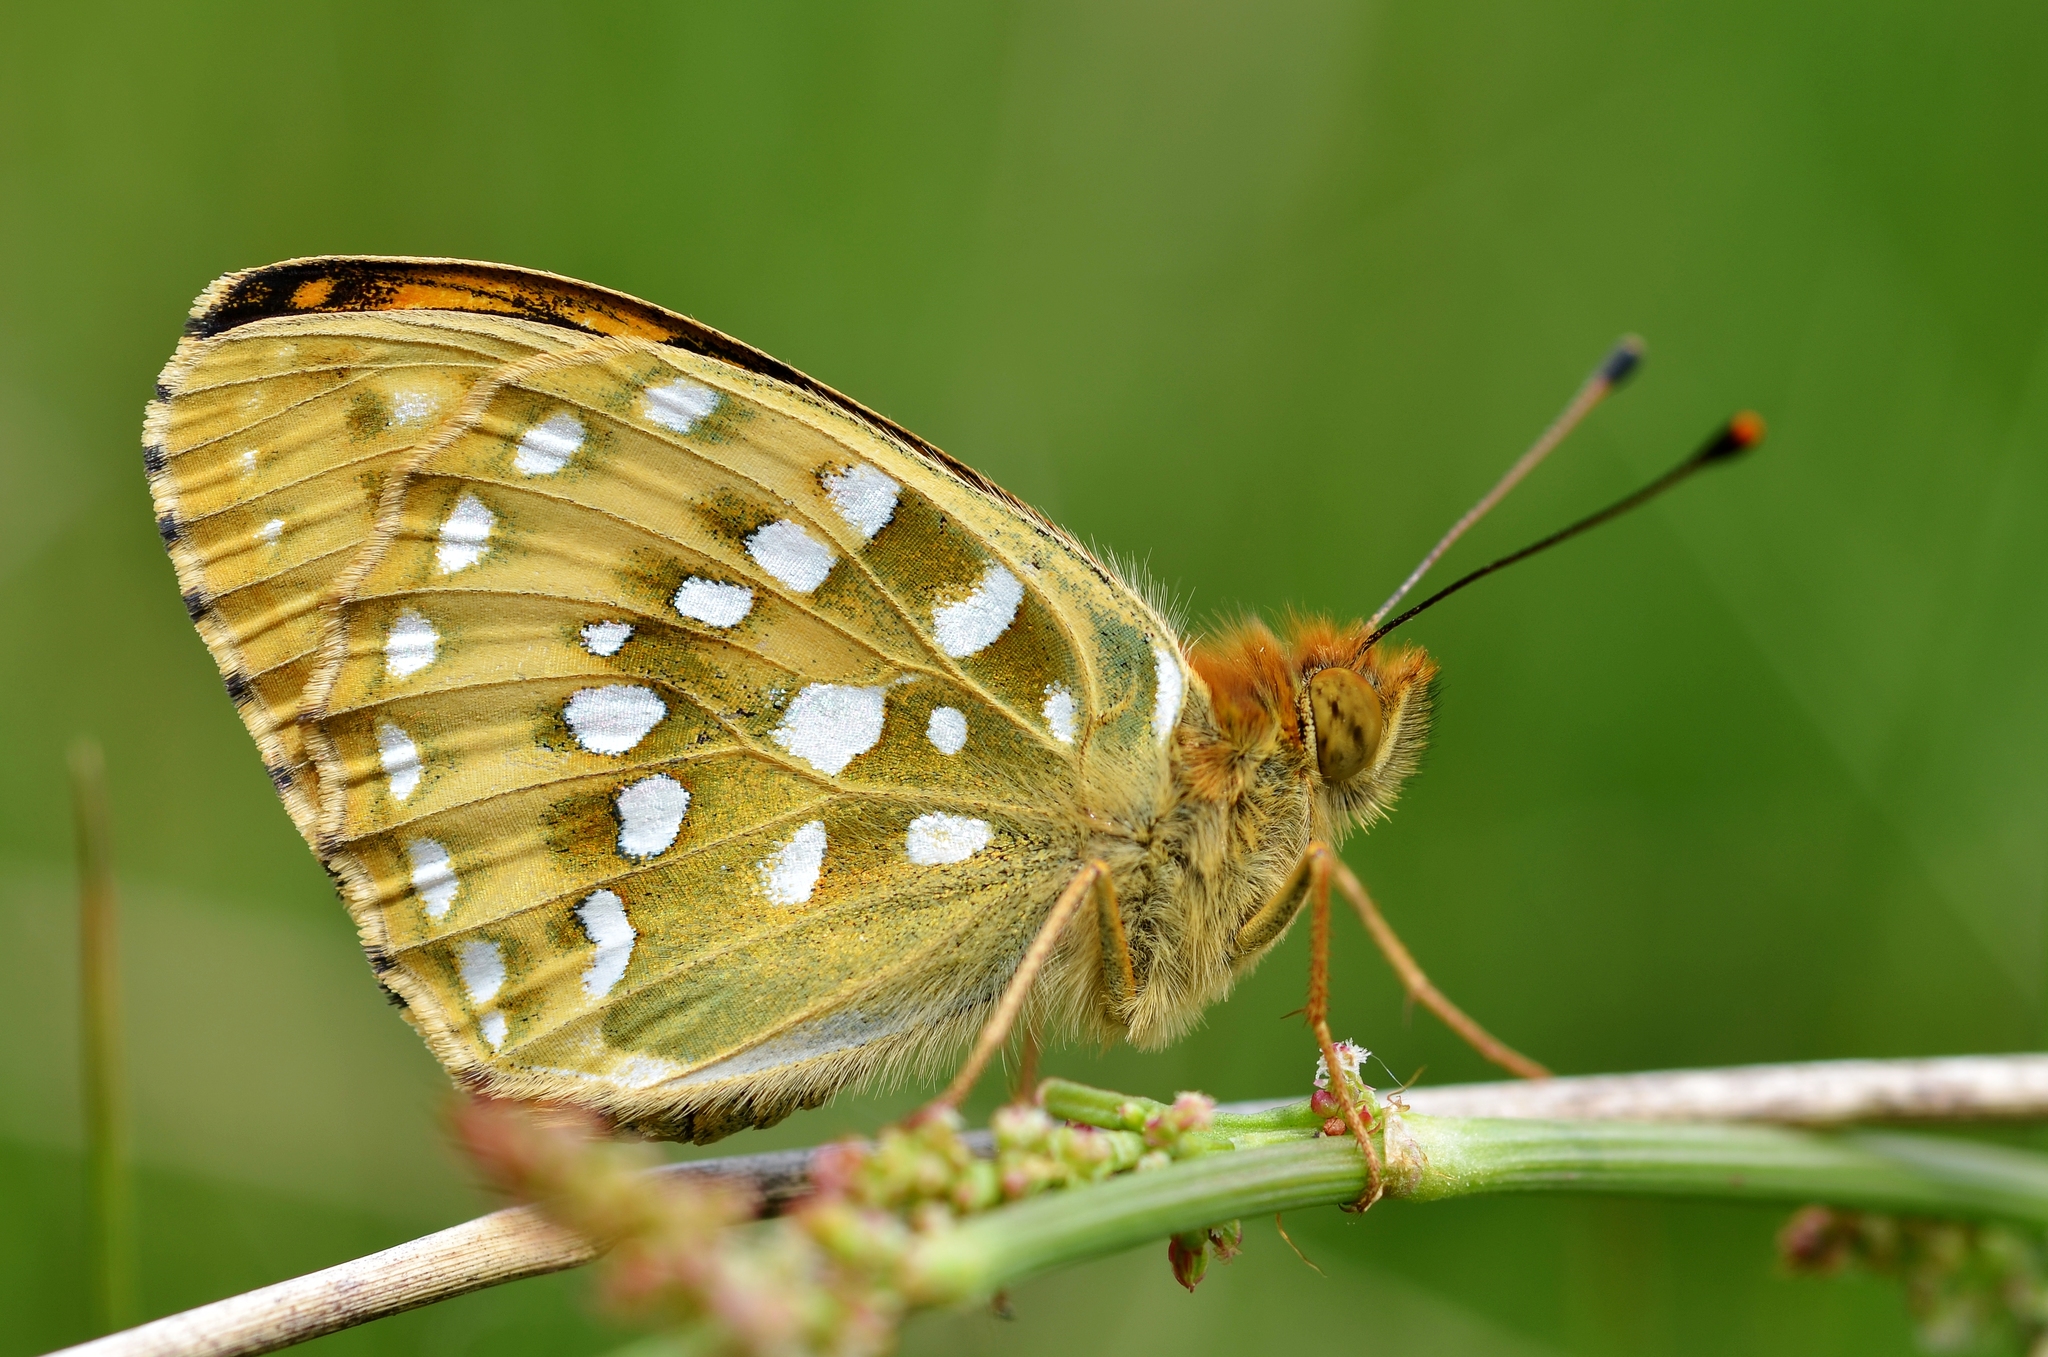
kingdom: Animalia
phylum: Arthropoda
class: Insecta
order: Lepidoptera
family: Nymphalidae
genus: Speyeria
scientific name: Speyeria aglaja
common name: Dark green fritillary
